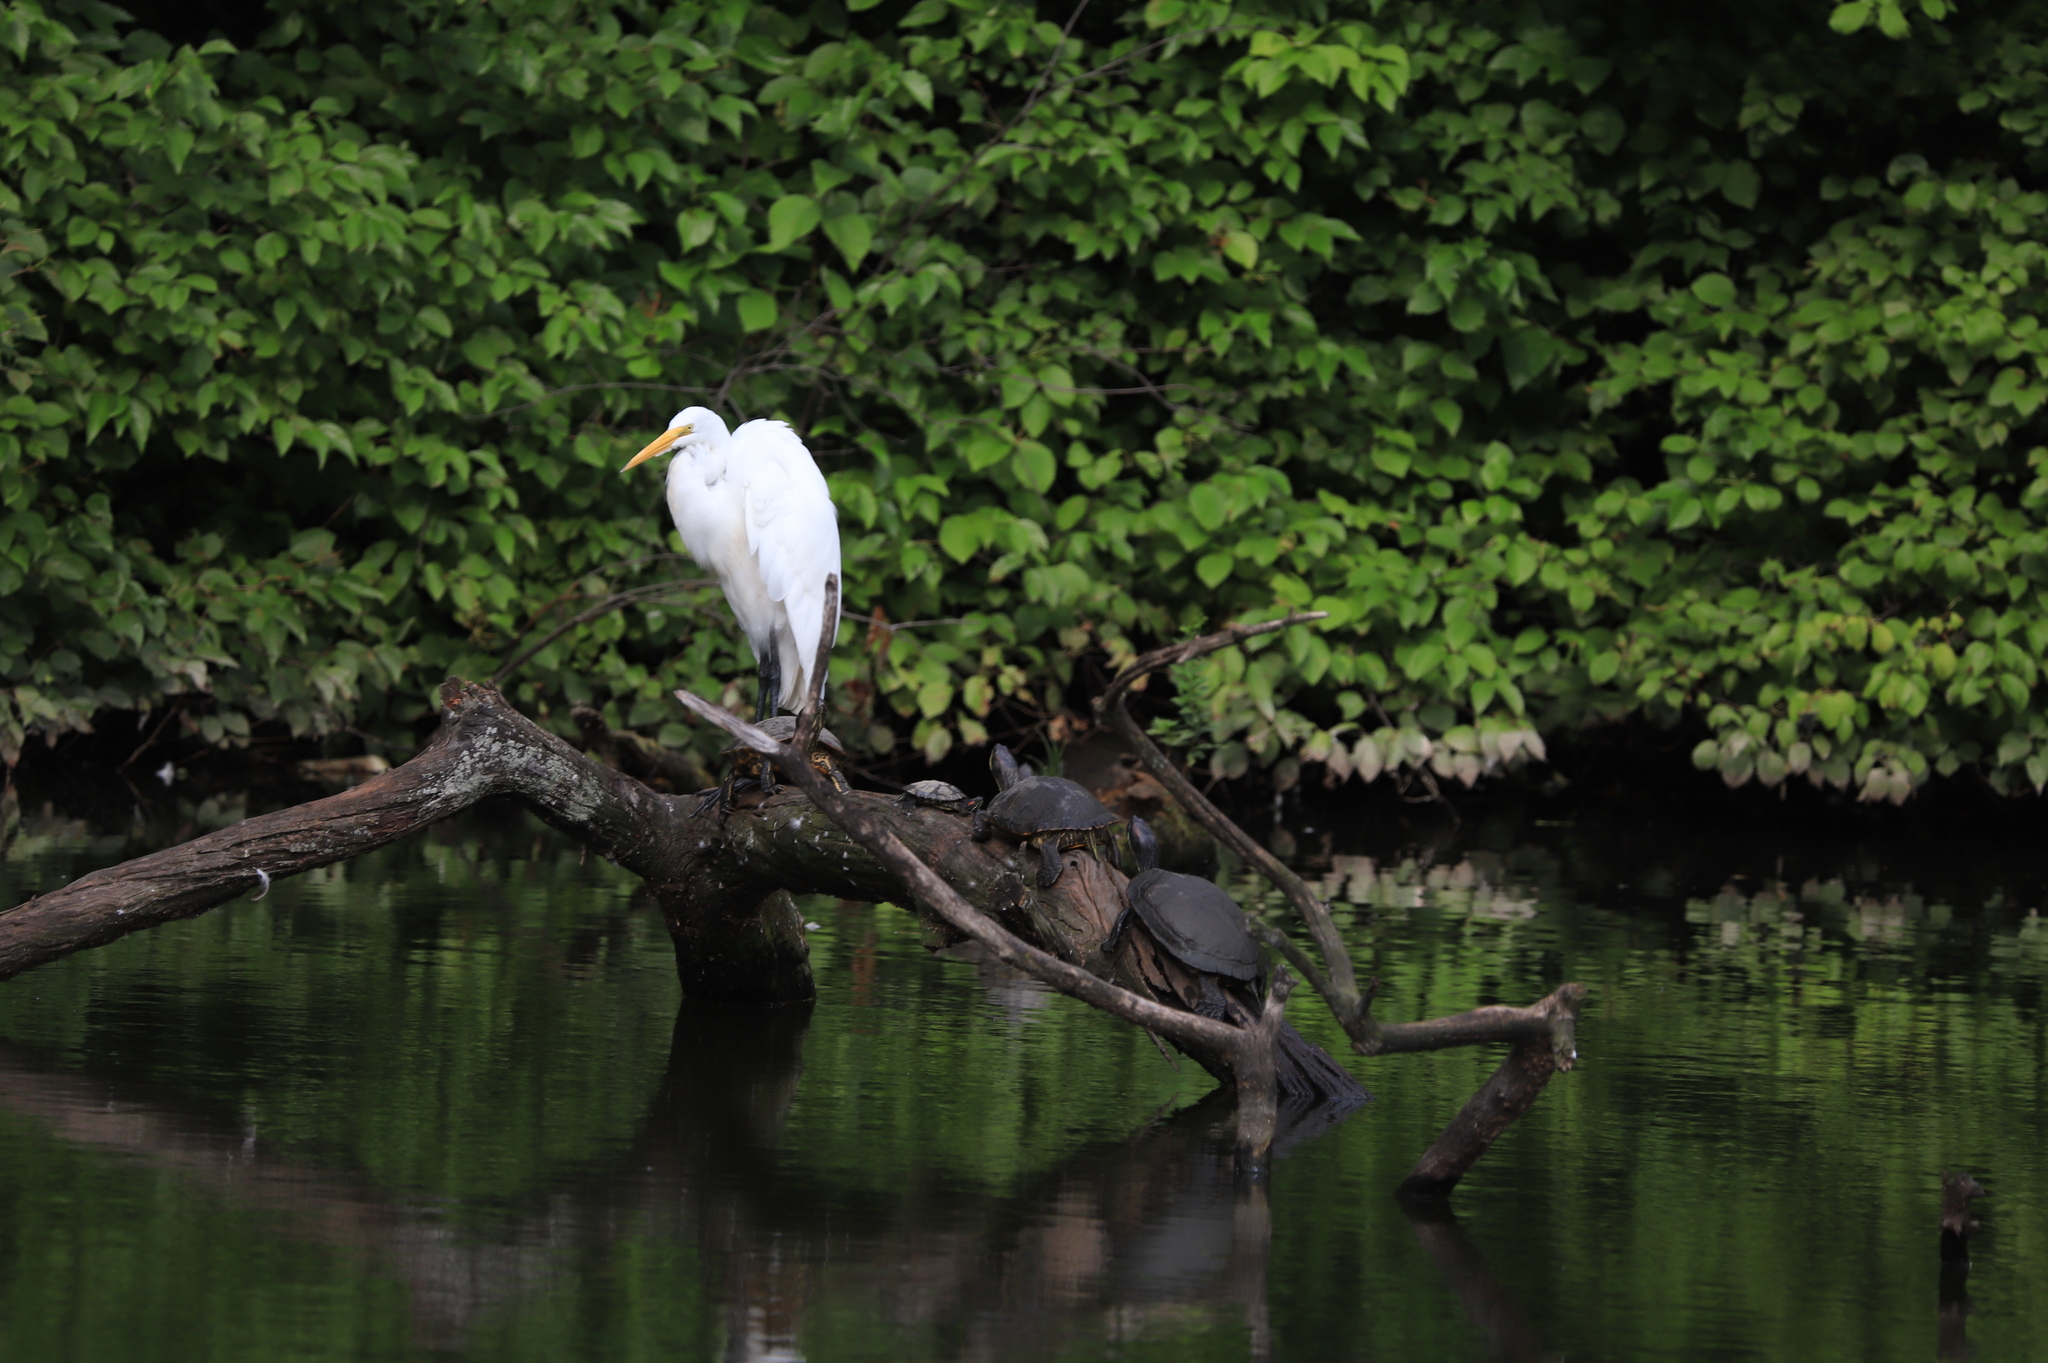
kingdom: Animalia
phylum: Chordata
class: Testudines
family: Emydidae
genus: Trachemys
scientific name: Trachemys scripta
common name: Slider
